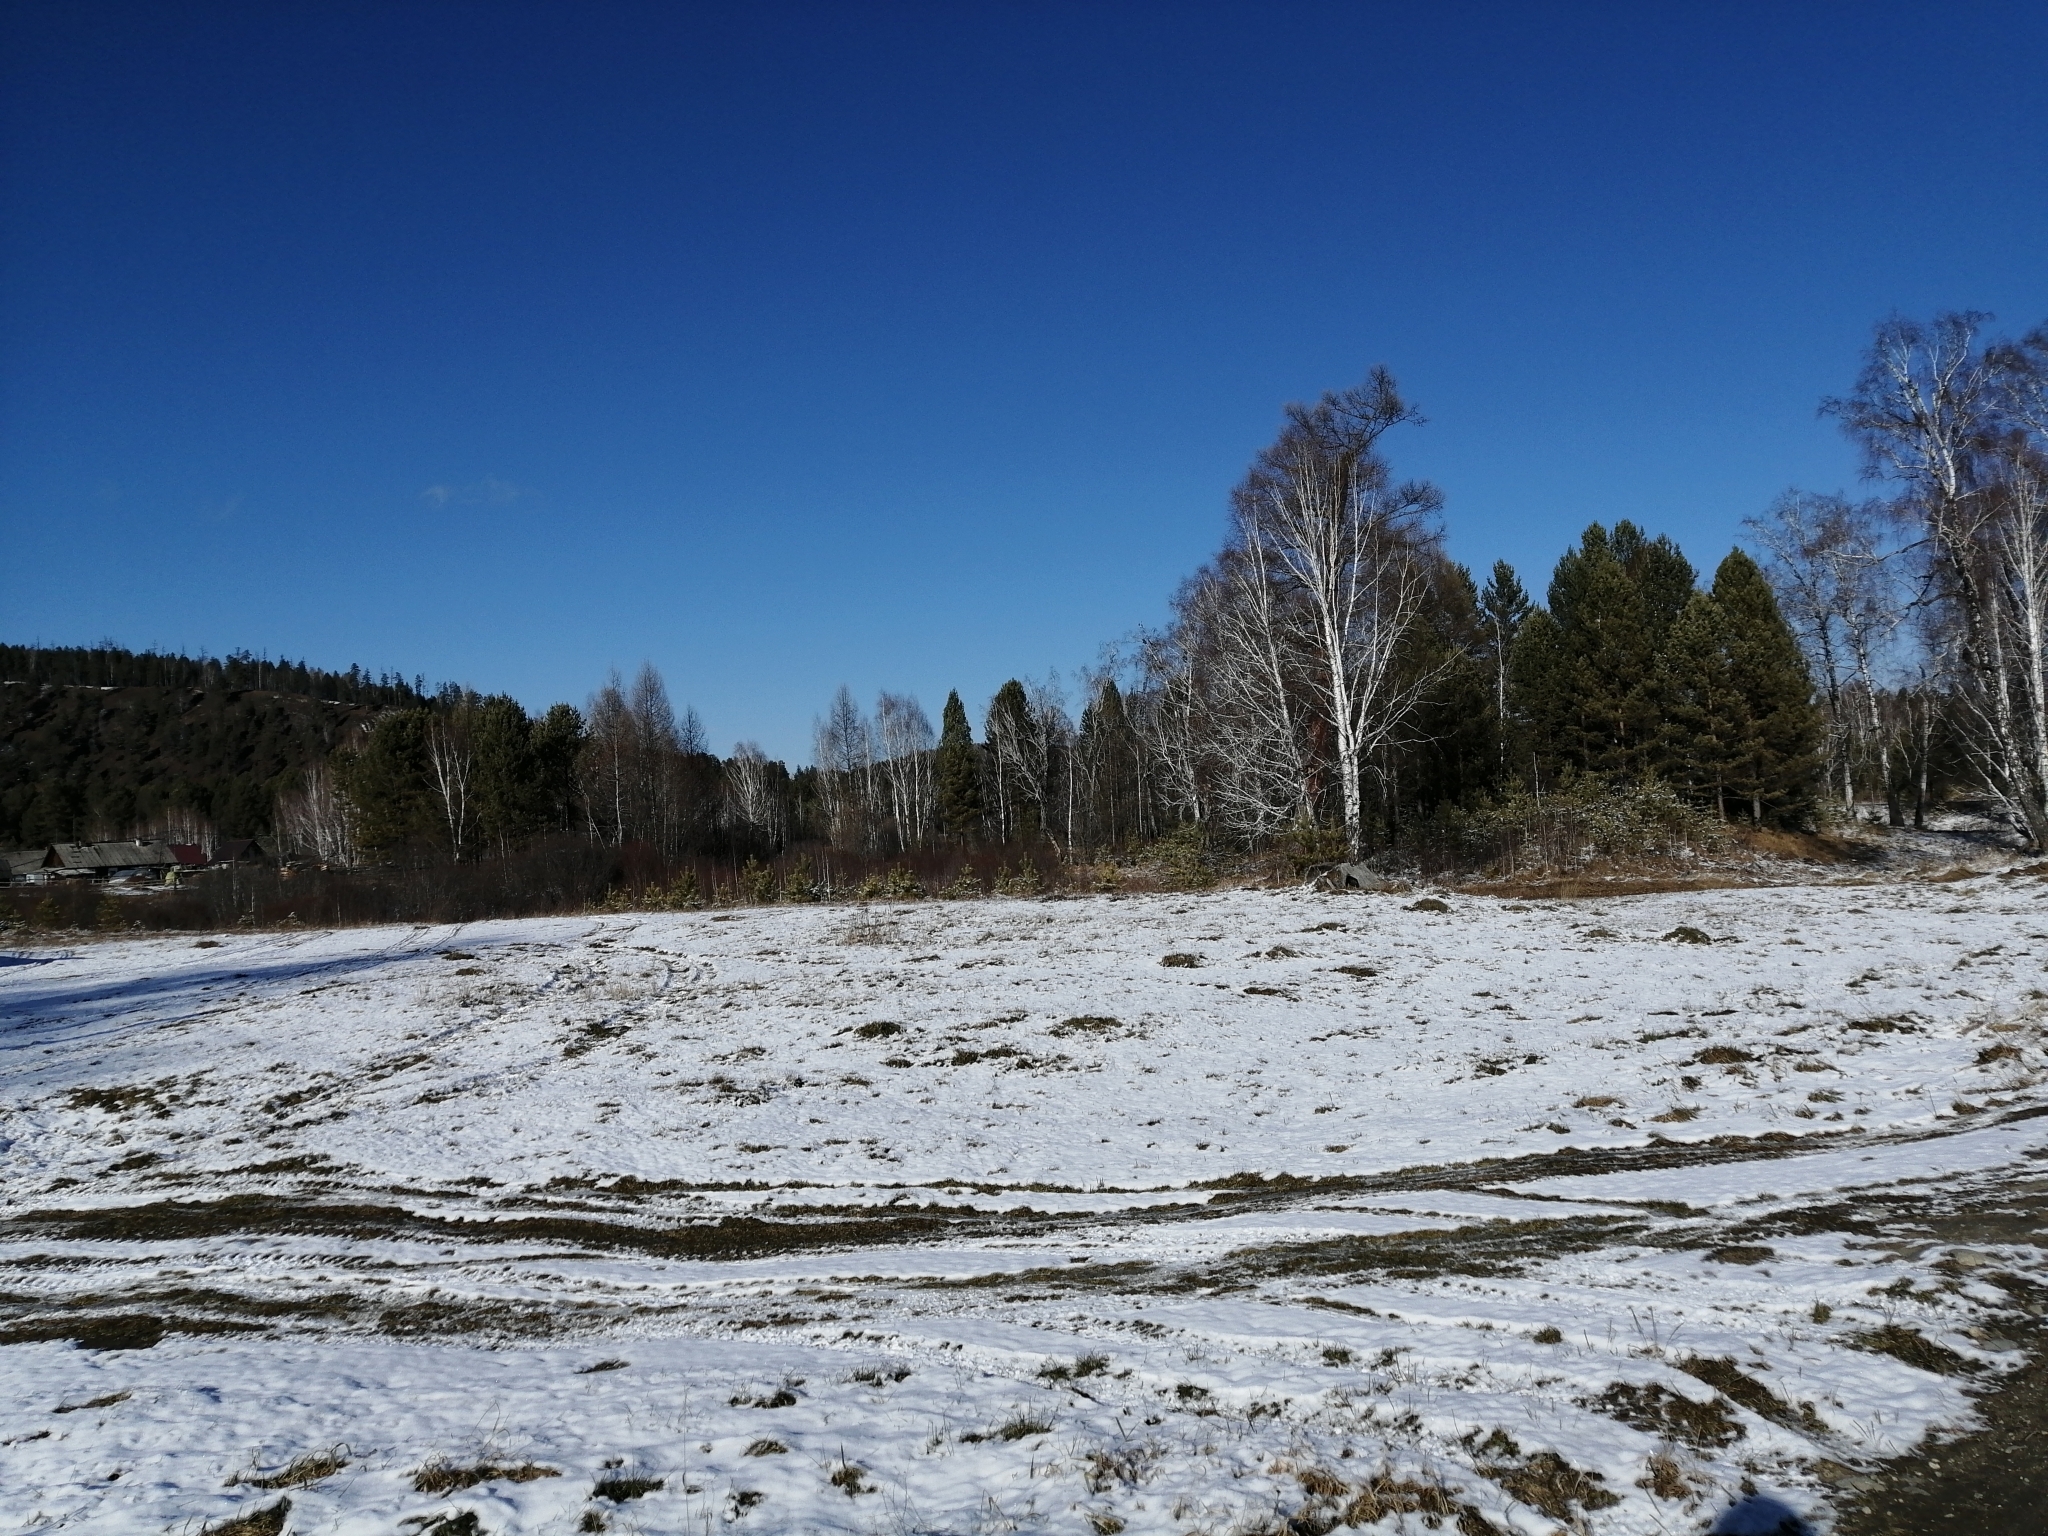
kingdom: Plantae
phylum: Tracheophyta
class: Pinopsida
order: Pinales
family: Pinaceae
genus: Pinus
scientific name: Pinus sylvestris
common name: Scots pine
